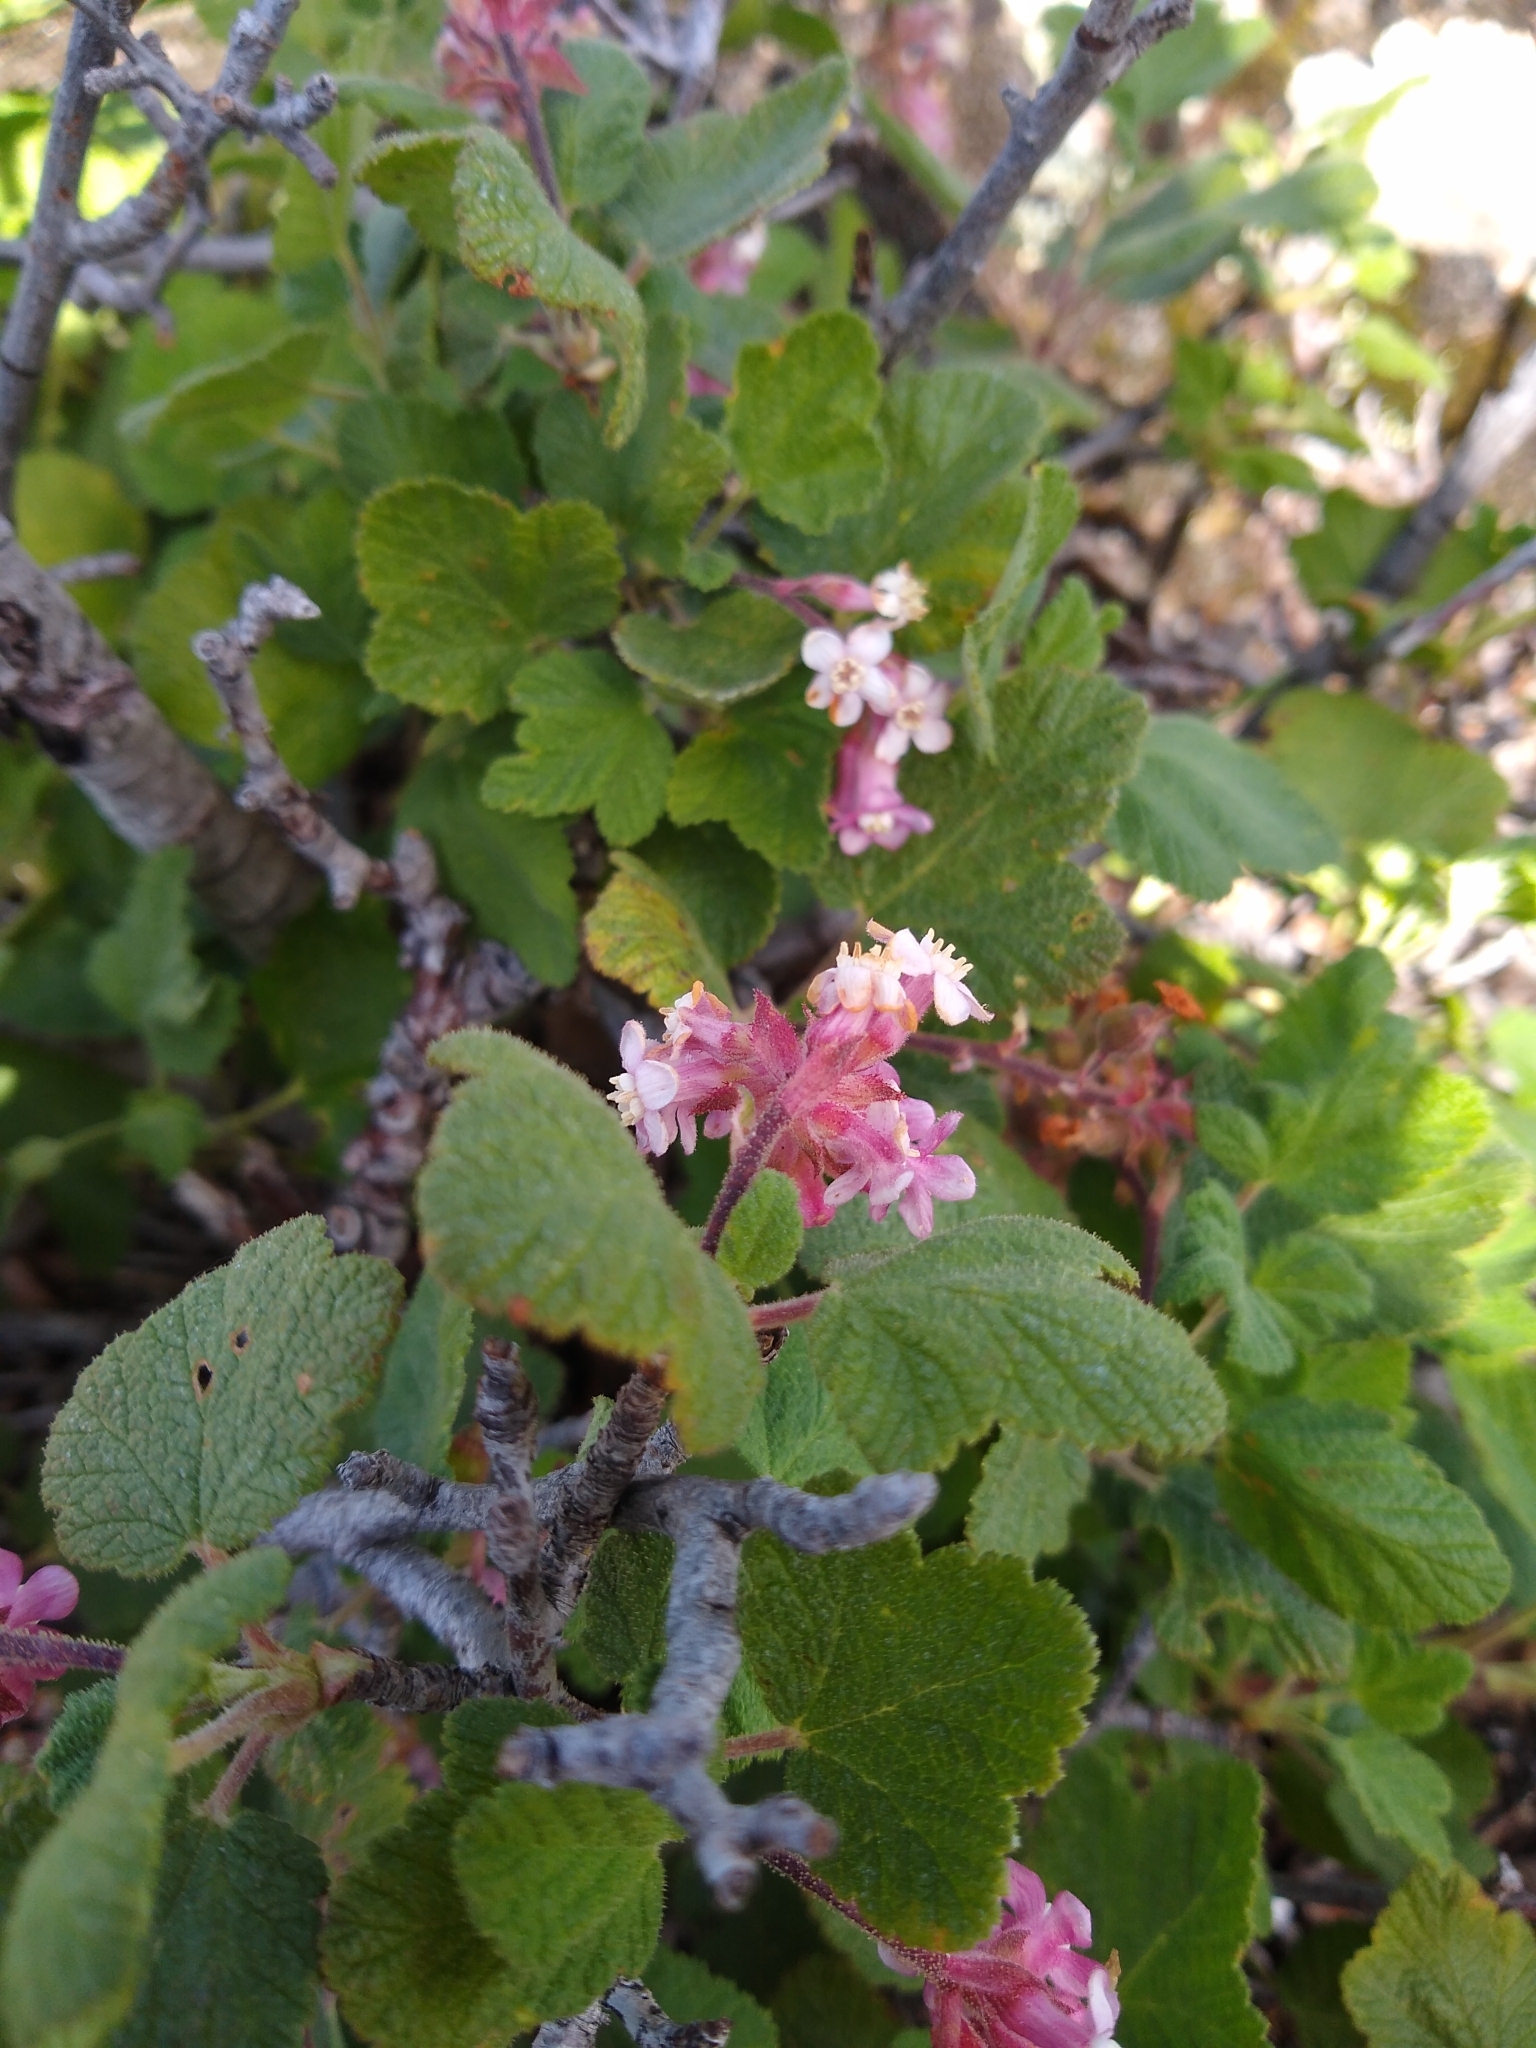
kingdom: Plantae
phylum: Tracheophyta
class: Magnoliopsida
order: Saxifragales
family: Grossulariaceae
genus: Ribes
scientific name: Ribes malvaceum
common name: Chaparral currant
